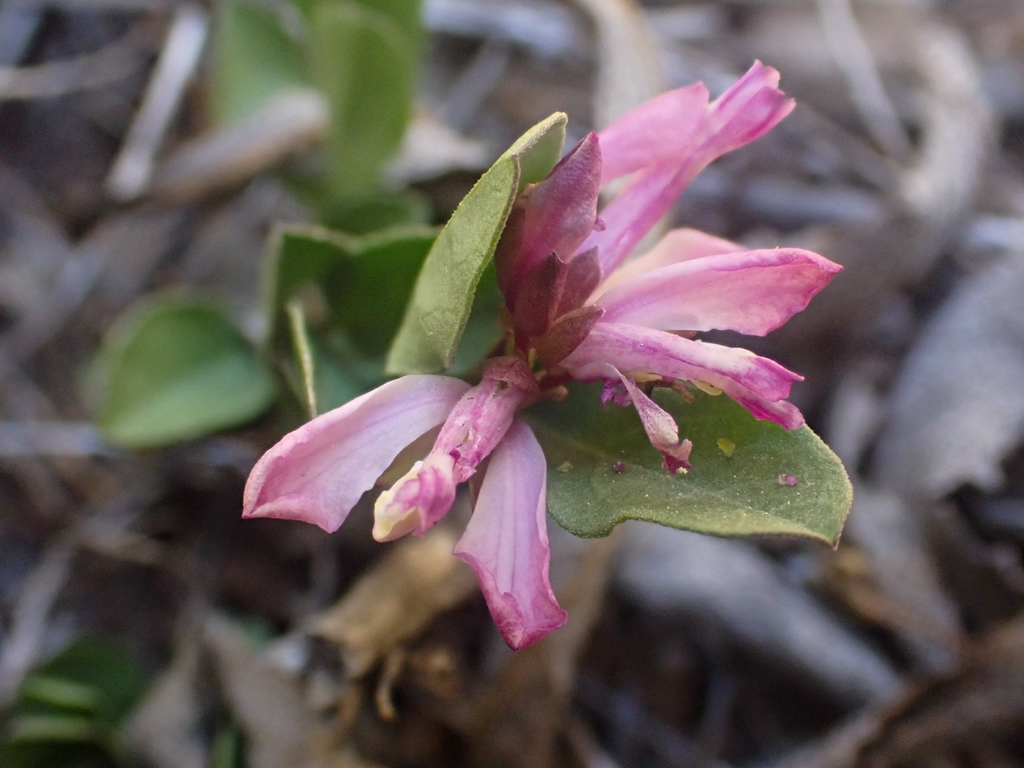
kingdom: Plantae
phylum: Tracheophyta
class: Magnoliopsida
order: Fabales
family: Polygalaceae
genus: Rhinotropis
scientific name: Rhinotropis californica
